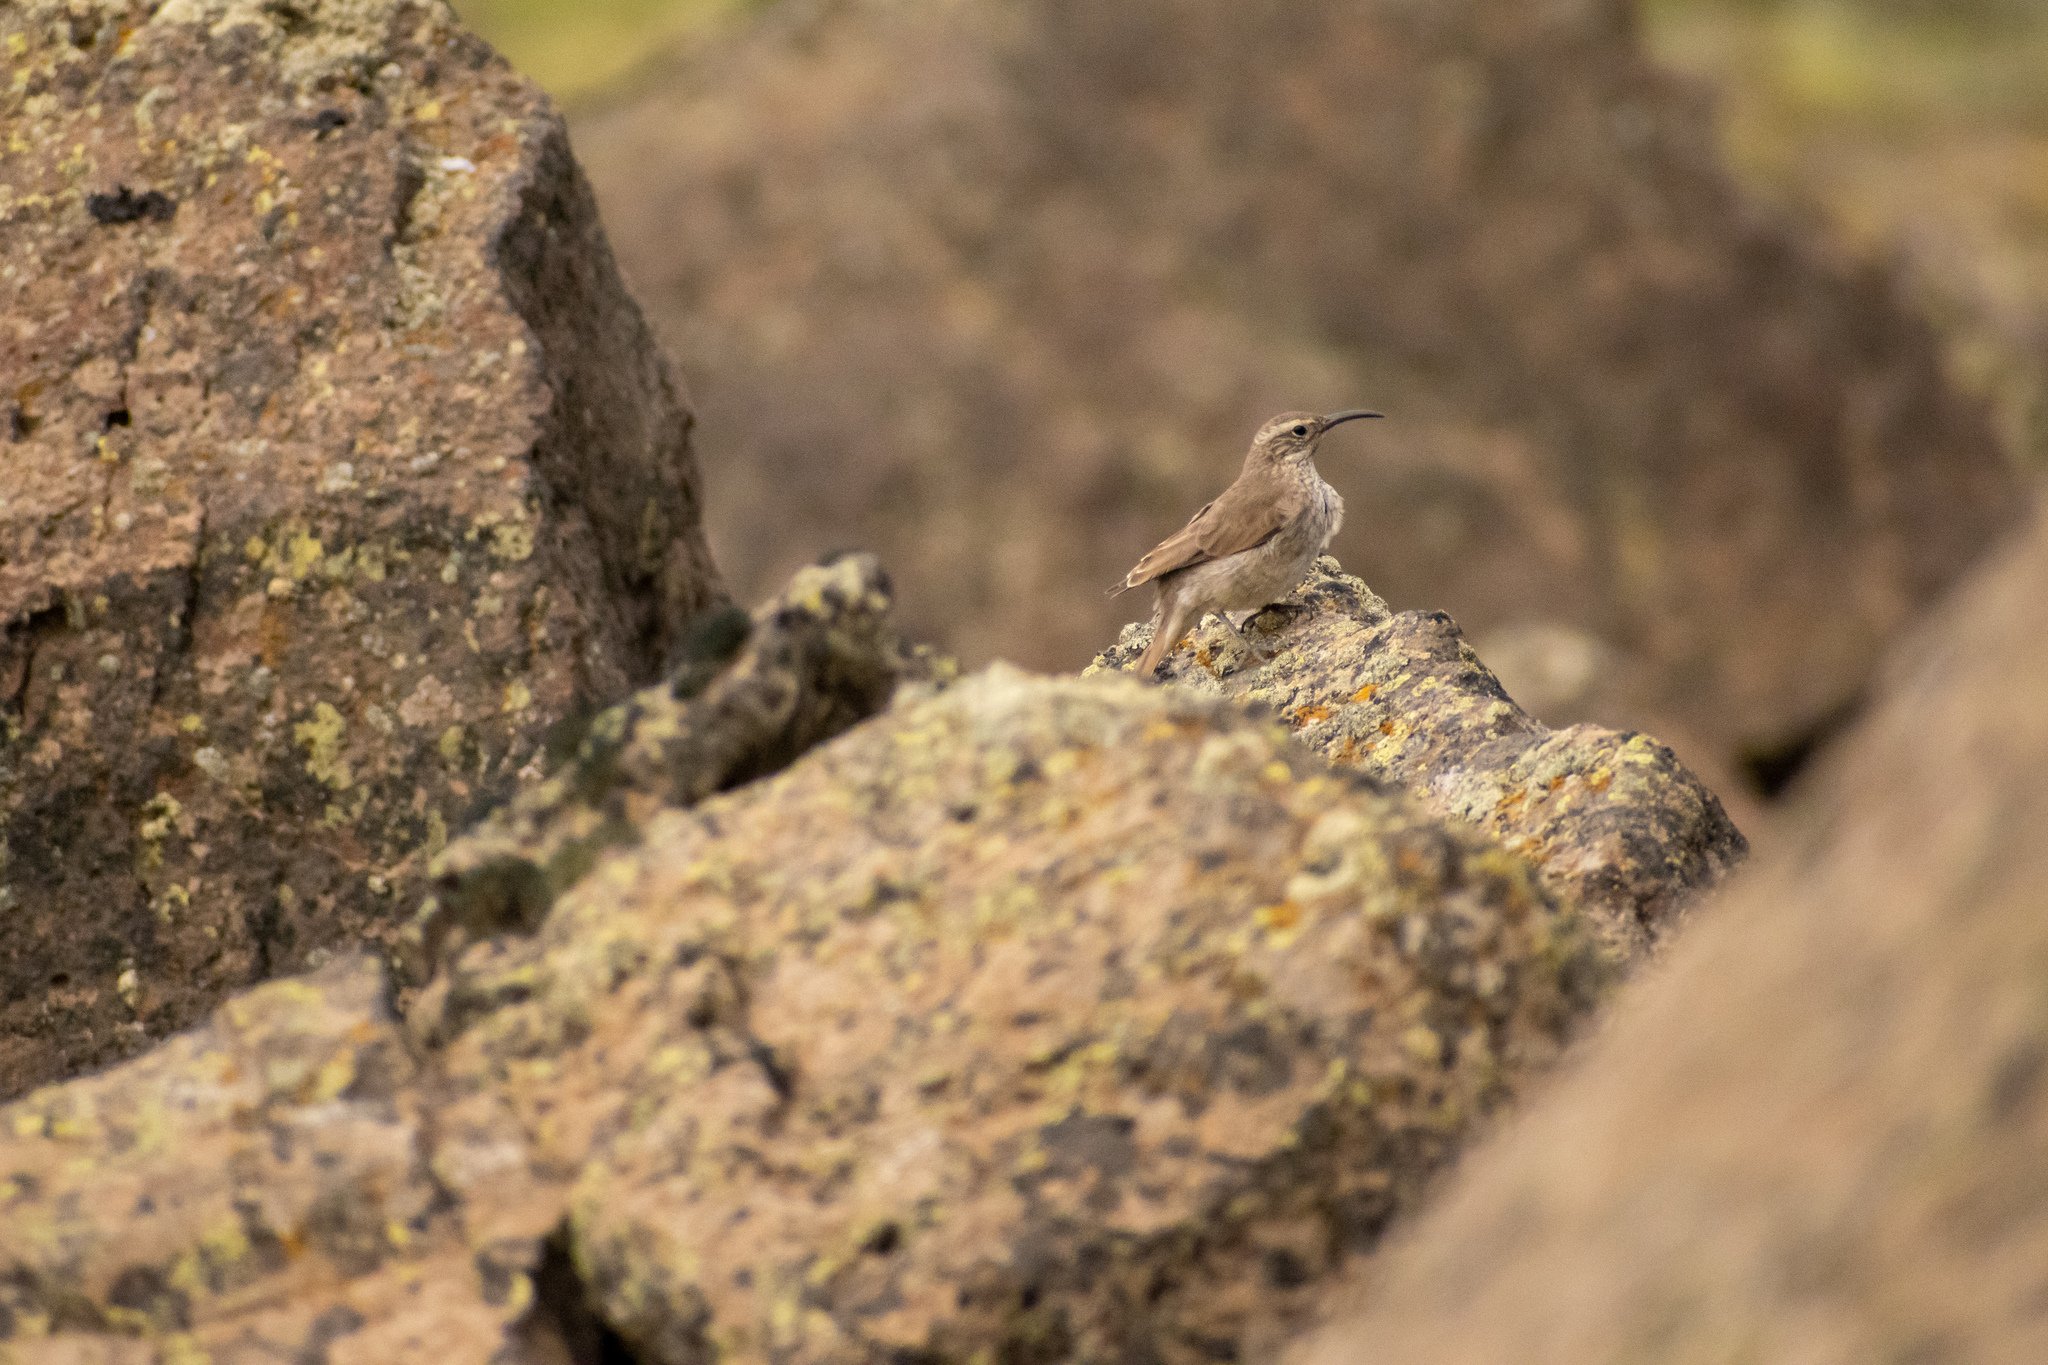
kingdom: Animalia
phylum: Chordata
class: Aves
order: Passeriformes
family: Furnariidae
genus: Upucerthia
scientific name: Upucerthia dumetaria
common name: Scale-throated earthcreeper
